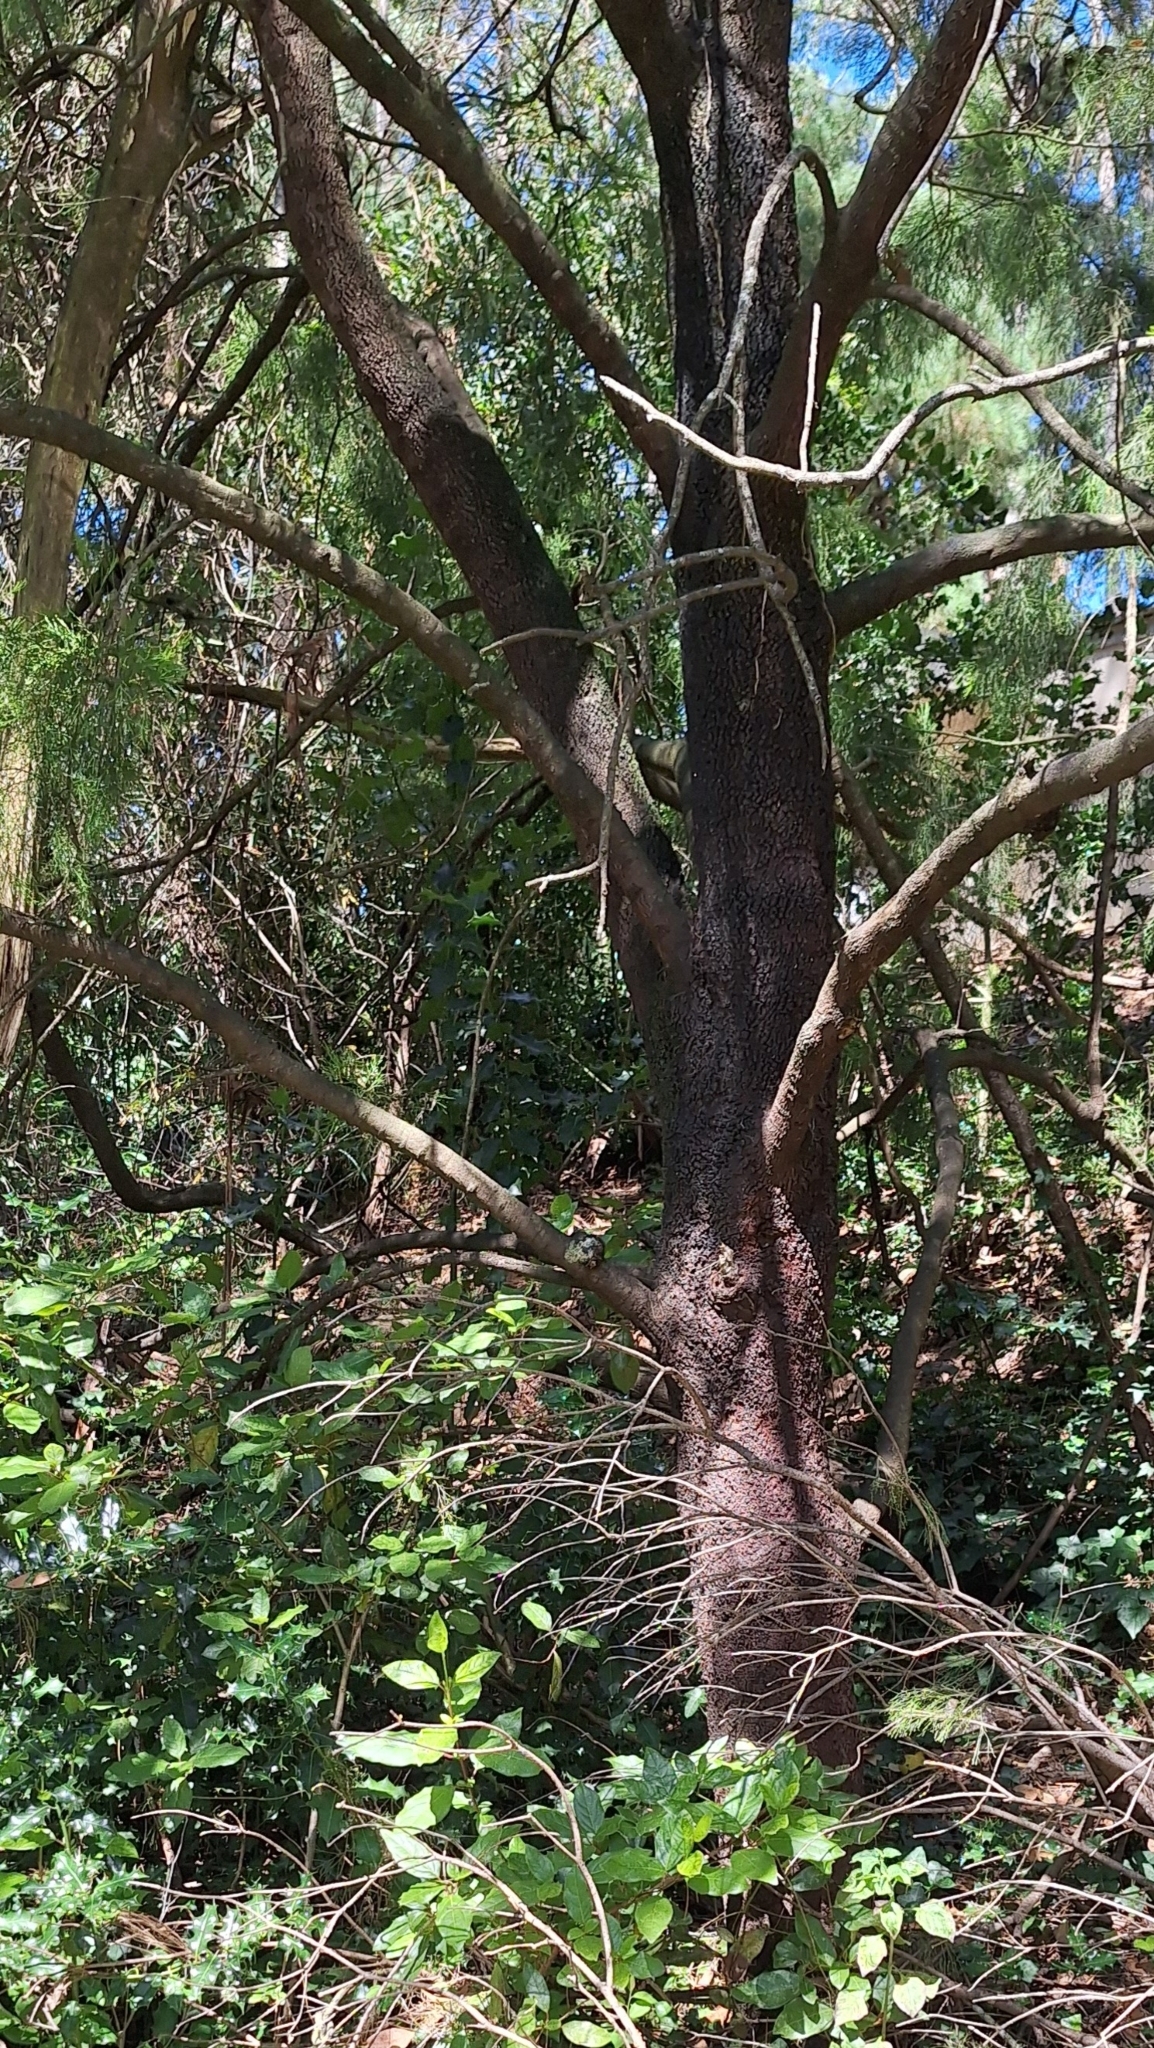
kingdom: Plantae
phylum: Tracheophyta
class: Magnoliopsida
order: Santalales
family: Santalaceae
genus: Exocarpos
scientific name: Exocarpos cupressiformis
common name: Cherry ballart
